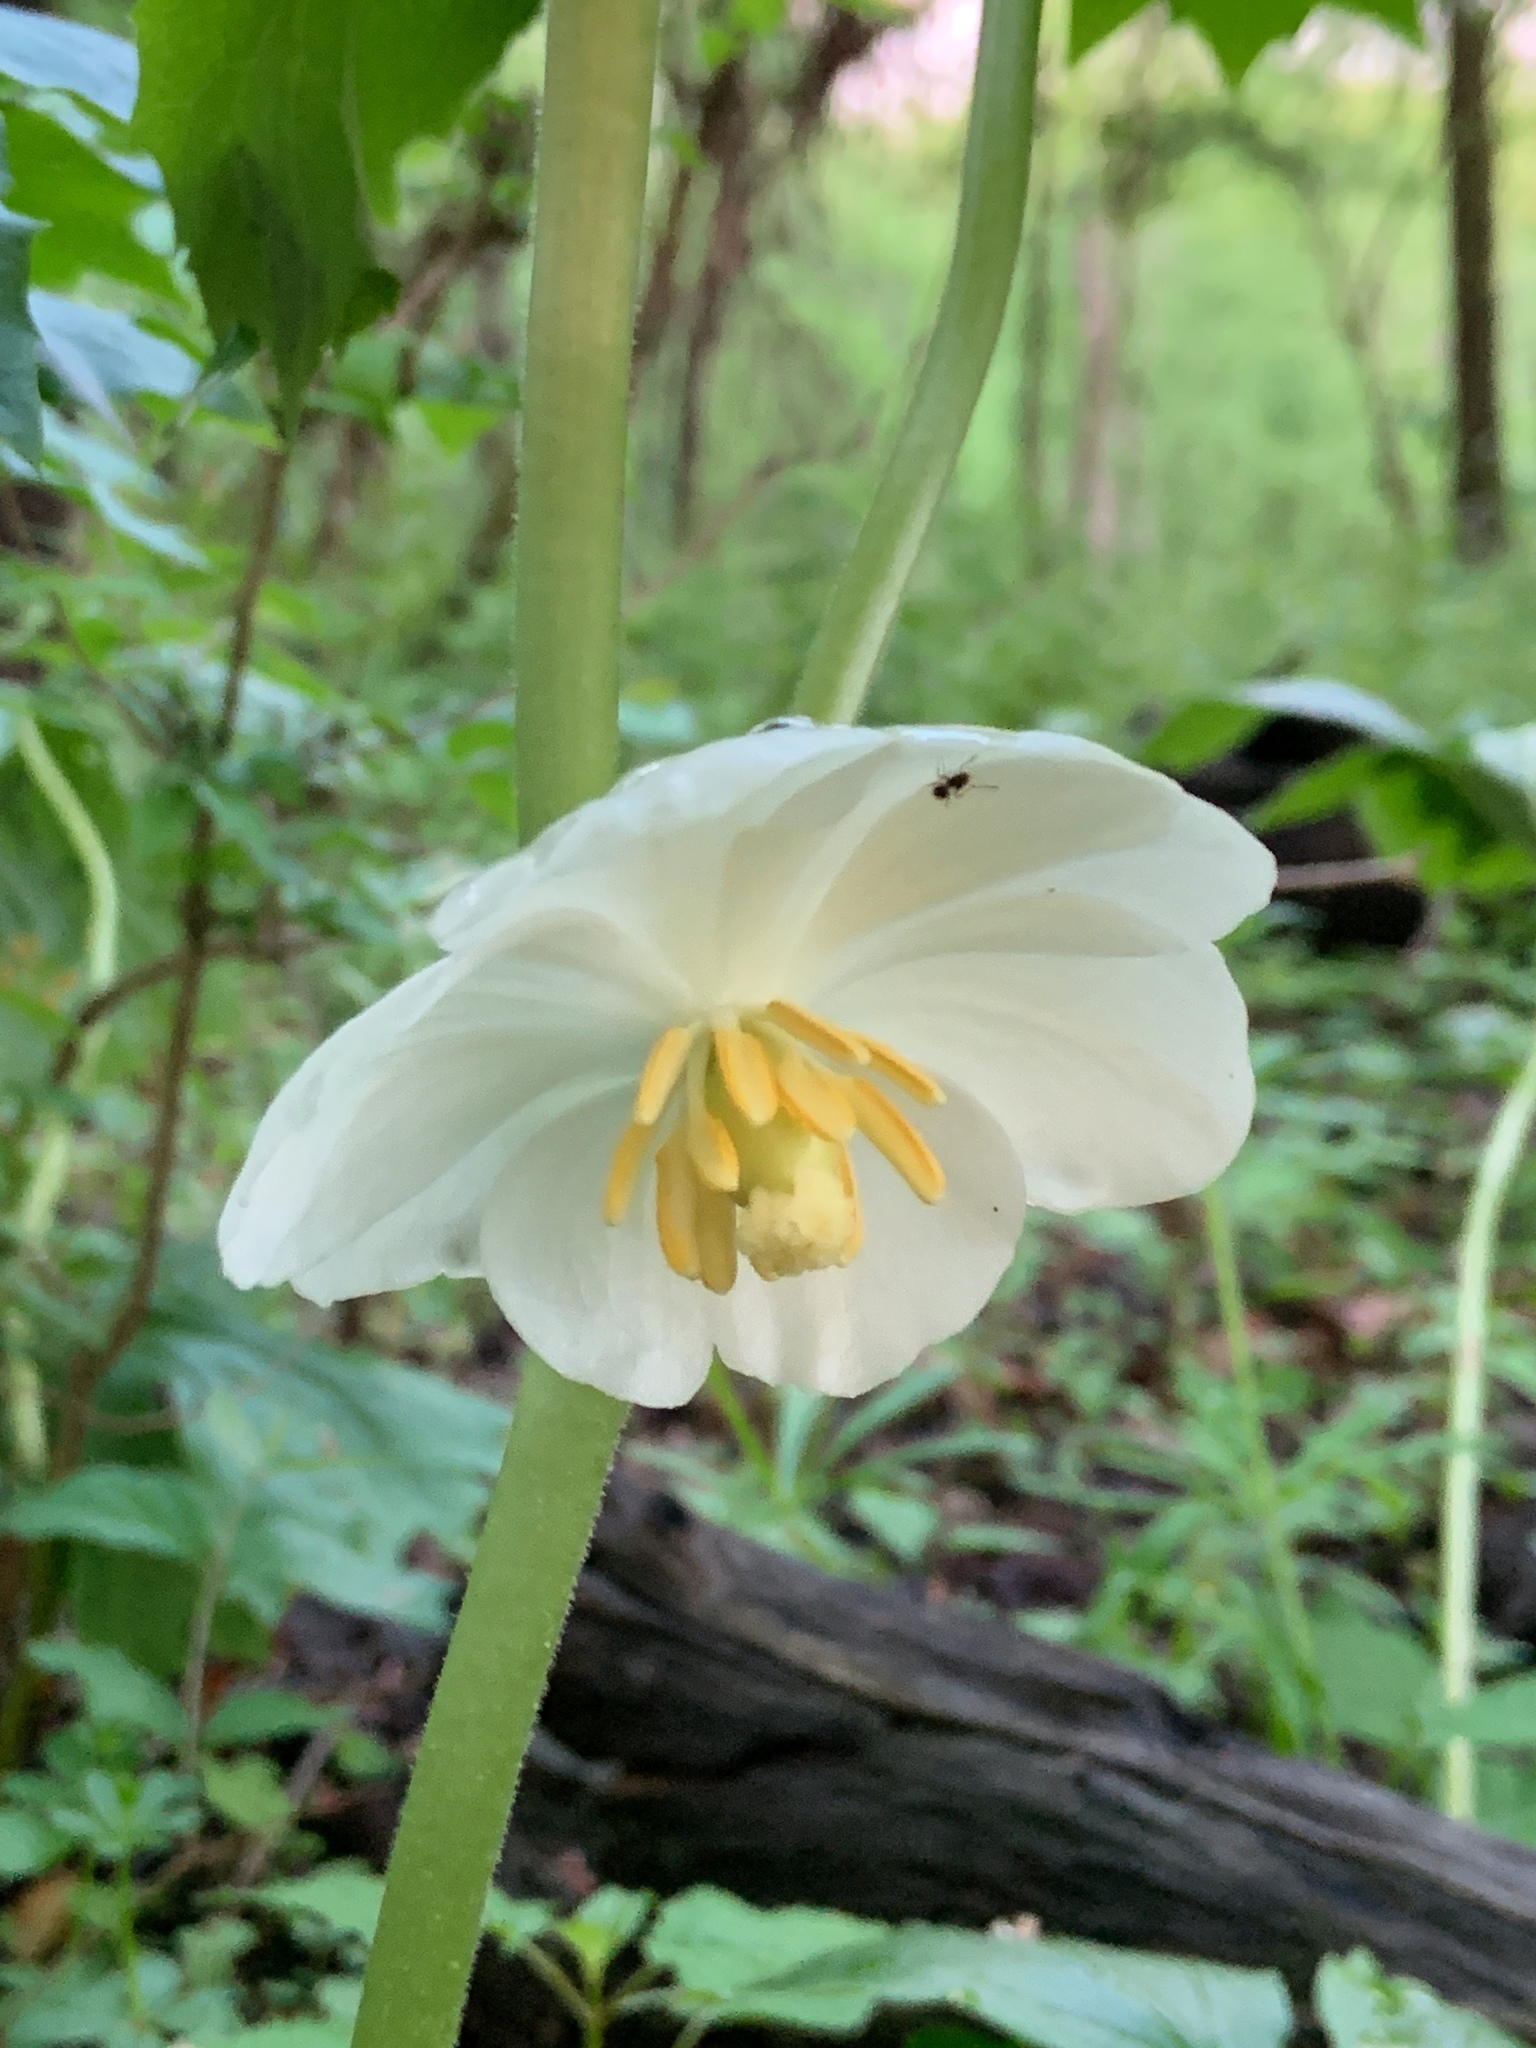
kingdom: Plantae
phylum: Tracheophyta
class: Magnoliopsida
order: Ranunculales
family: Berberidaceae
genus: Podophyllum
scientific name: Podophyllum peltatum
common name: Wild mandrake
